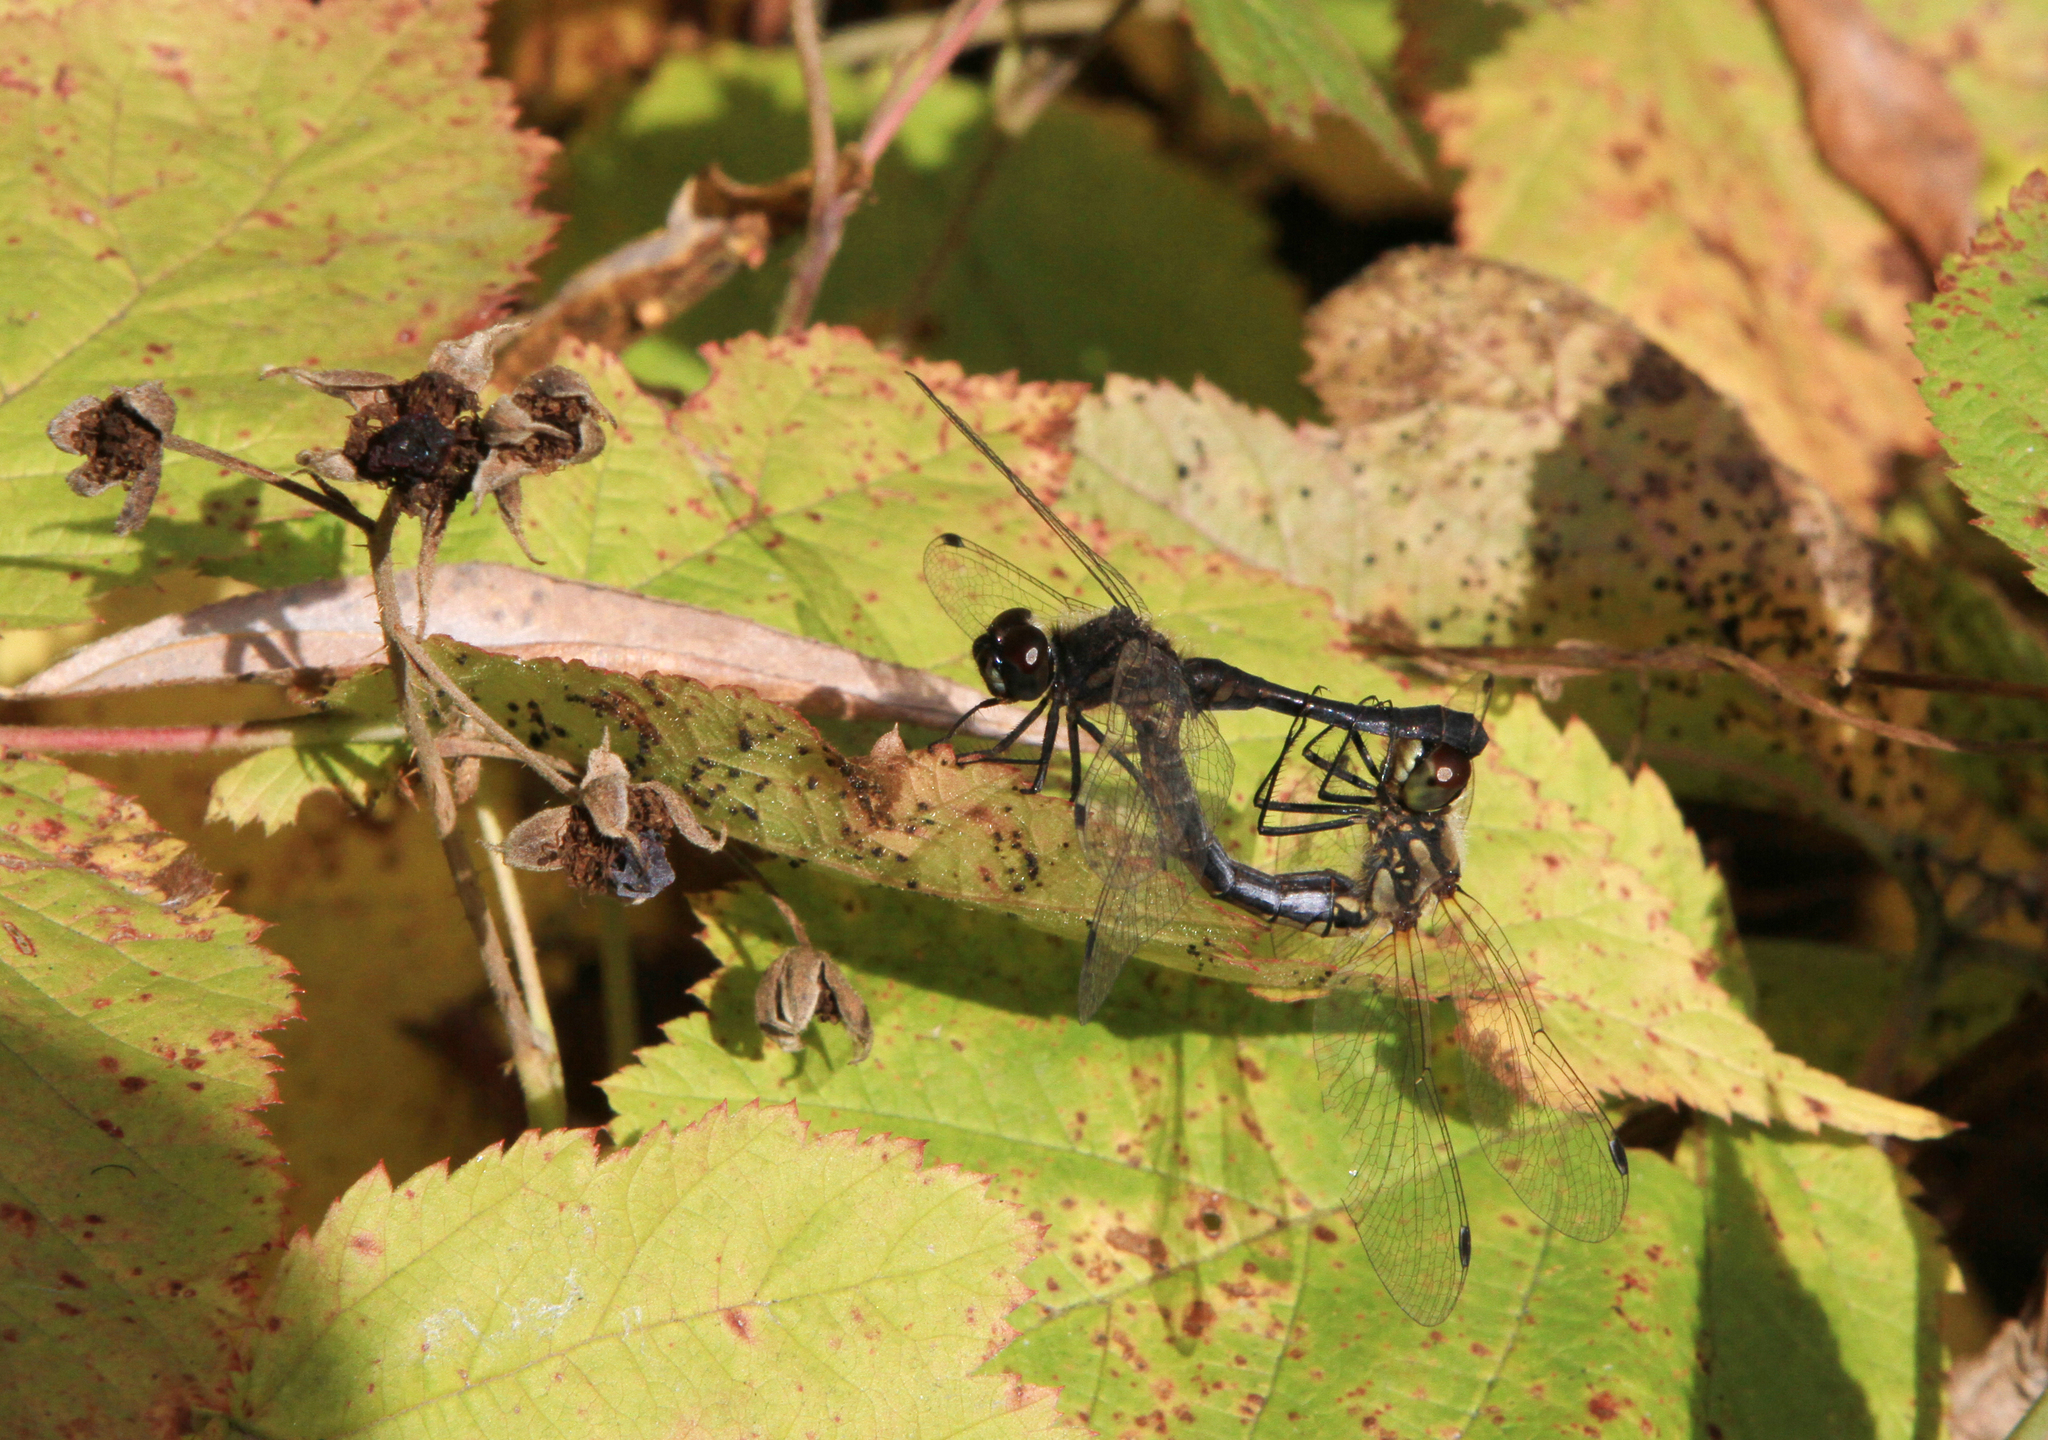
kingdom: Plantae
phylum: Tracheophyta
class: Magnoliopsida
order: Rosales
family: Rosaceae
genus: Rubus
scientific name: Rubus caesius
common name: Dewberry
